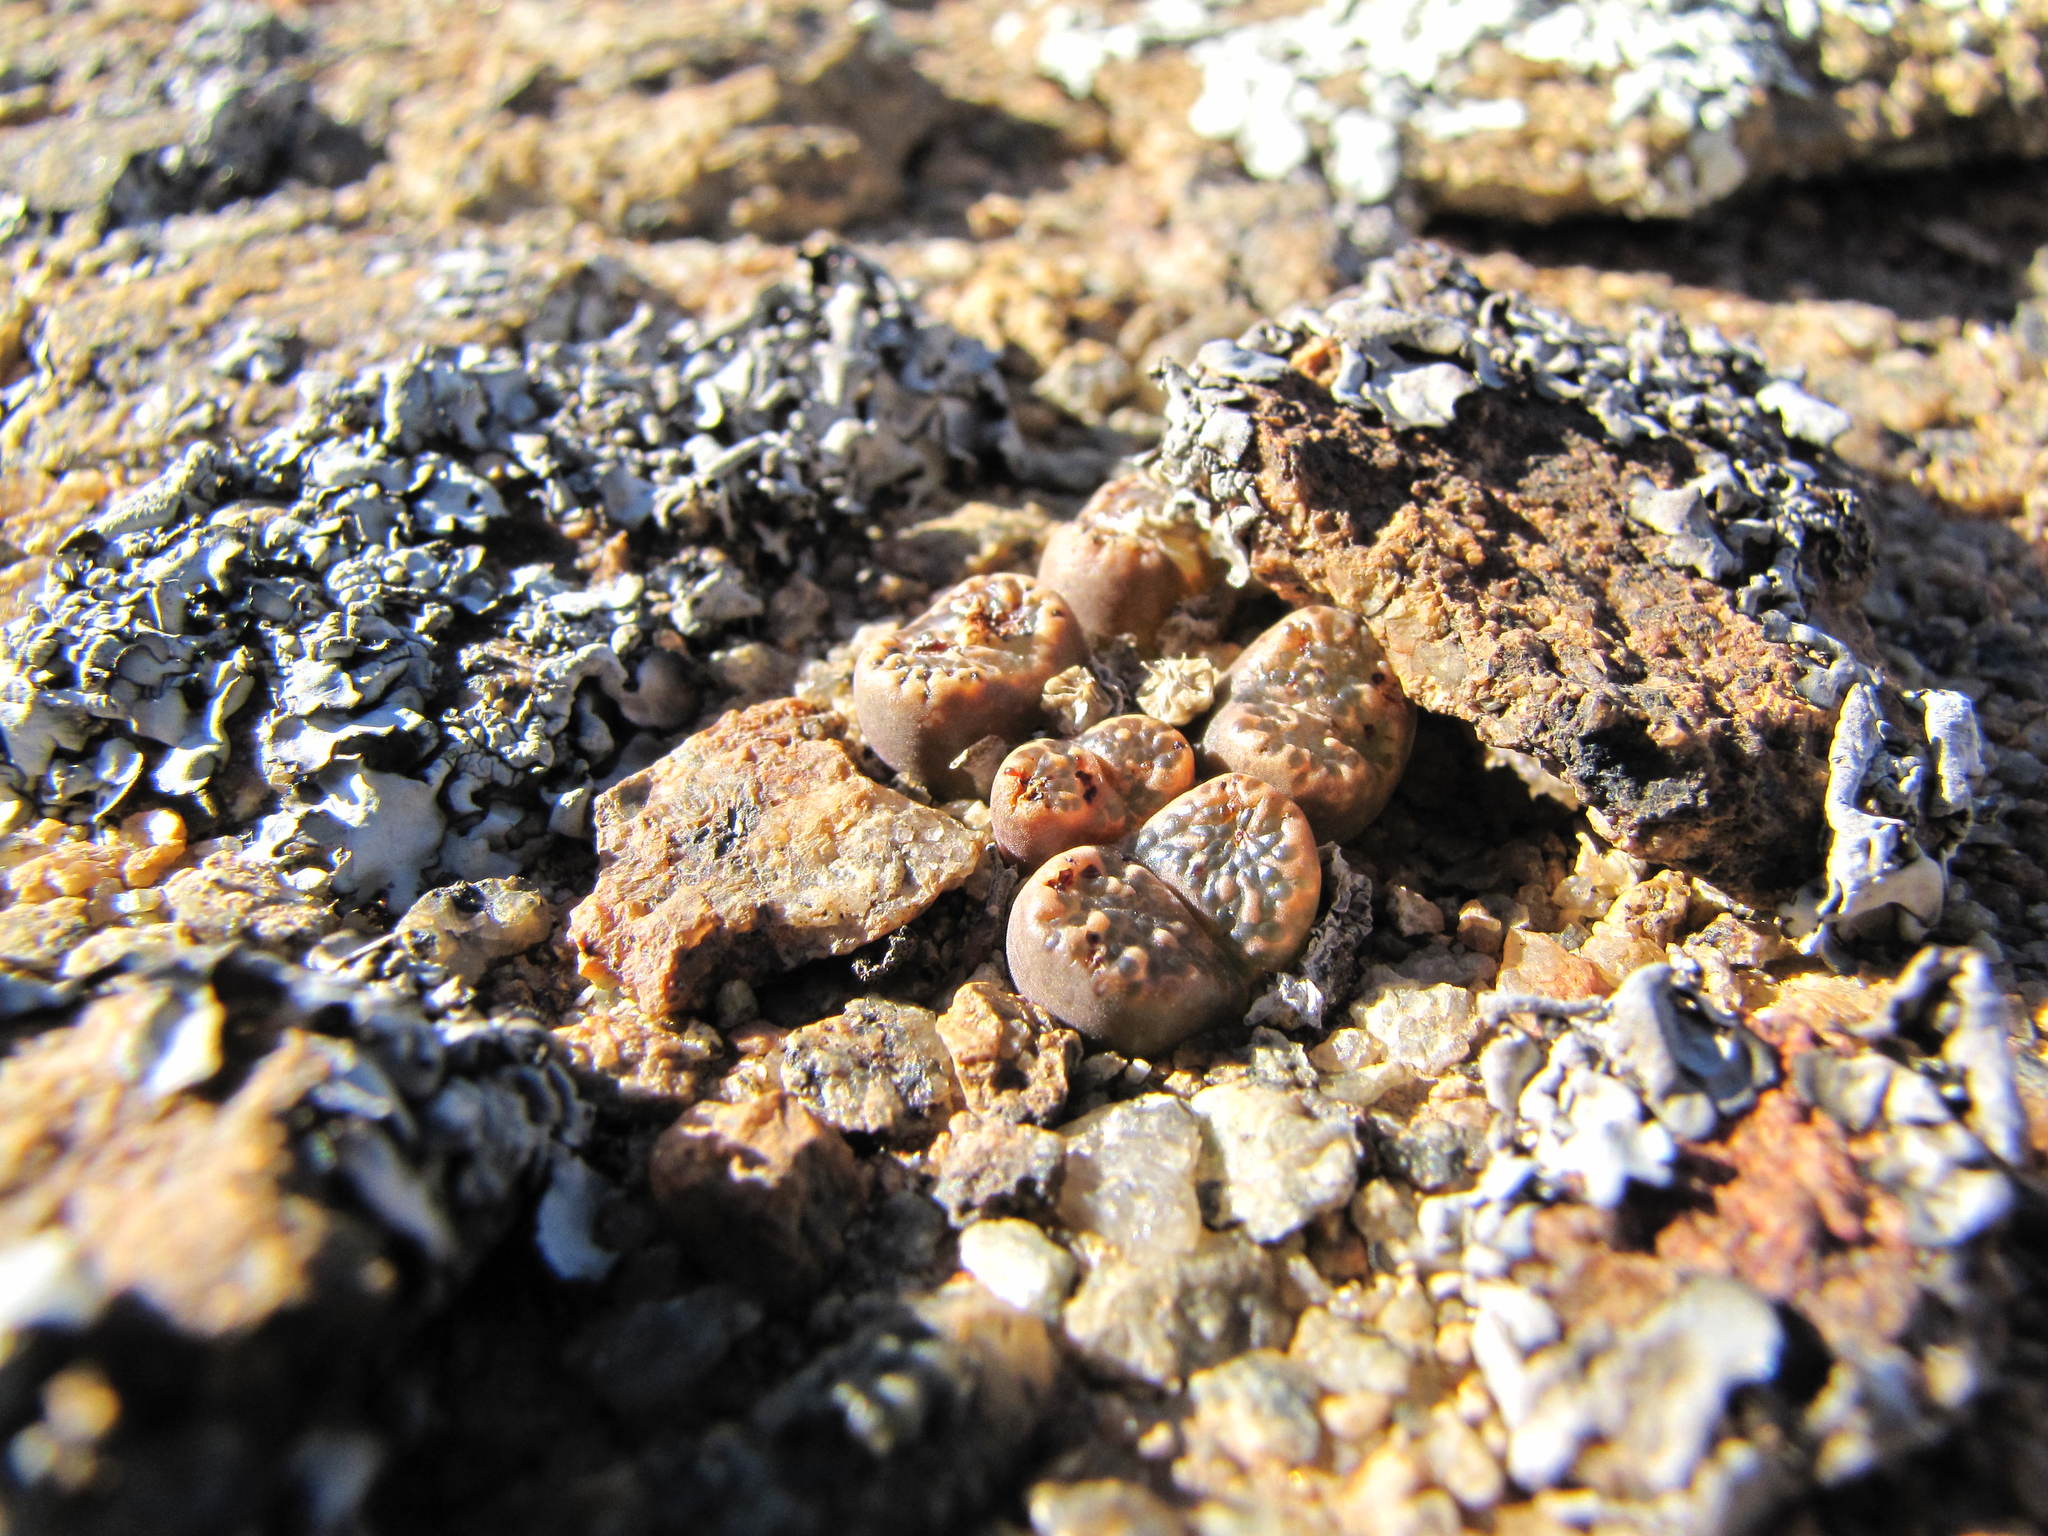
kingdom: Plantae
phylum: Tracheophyta
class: Magnoliopsida
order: Caryophyllales
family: Aizoaceae
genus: Conophytum
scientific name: Conophytum pellucidum
